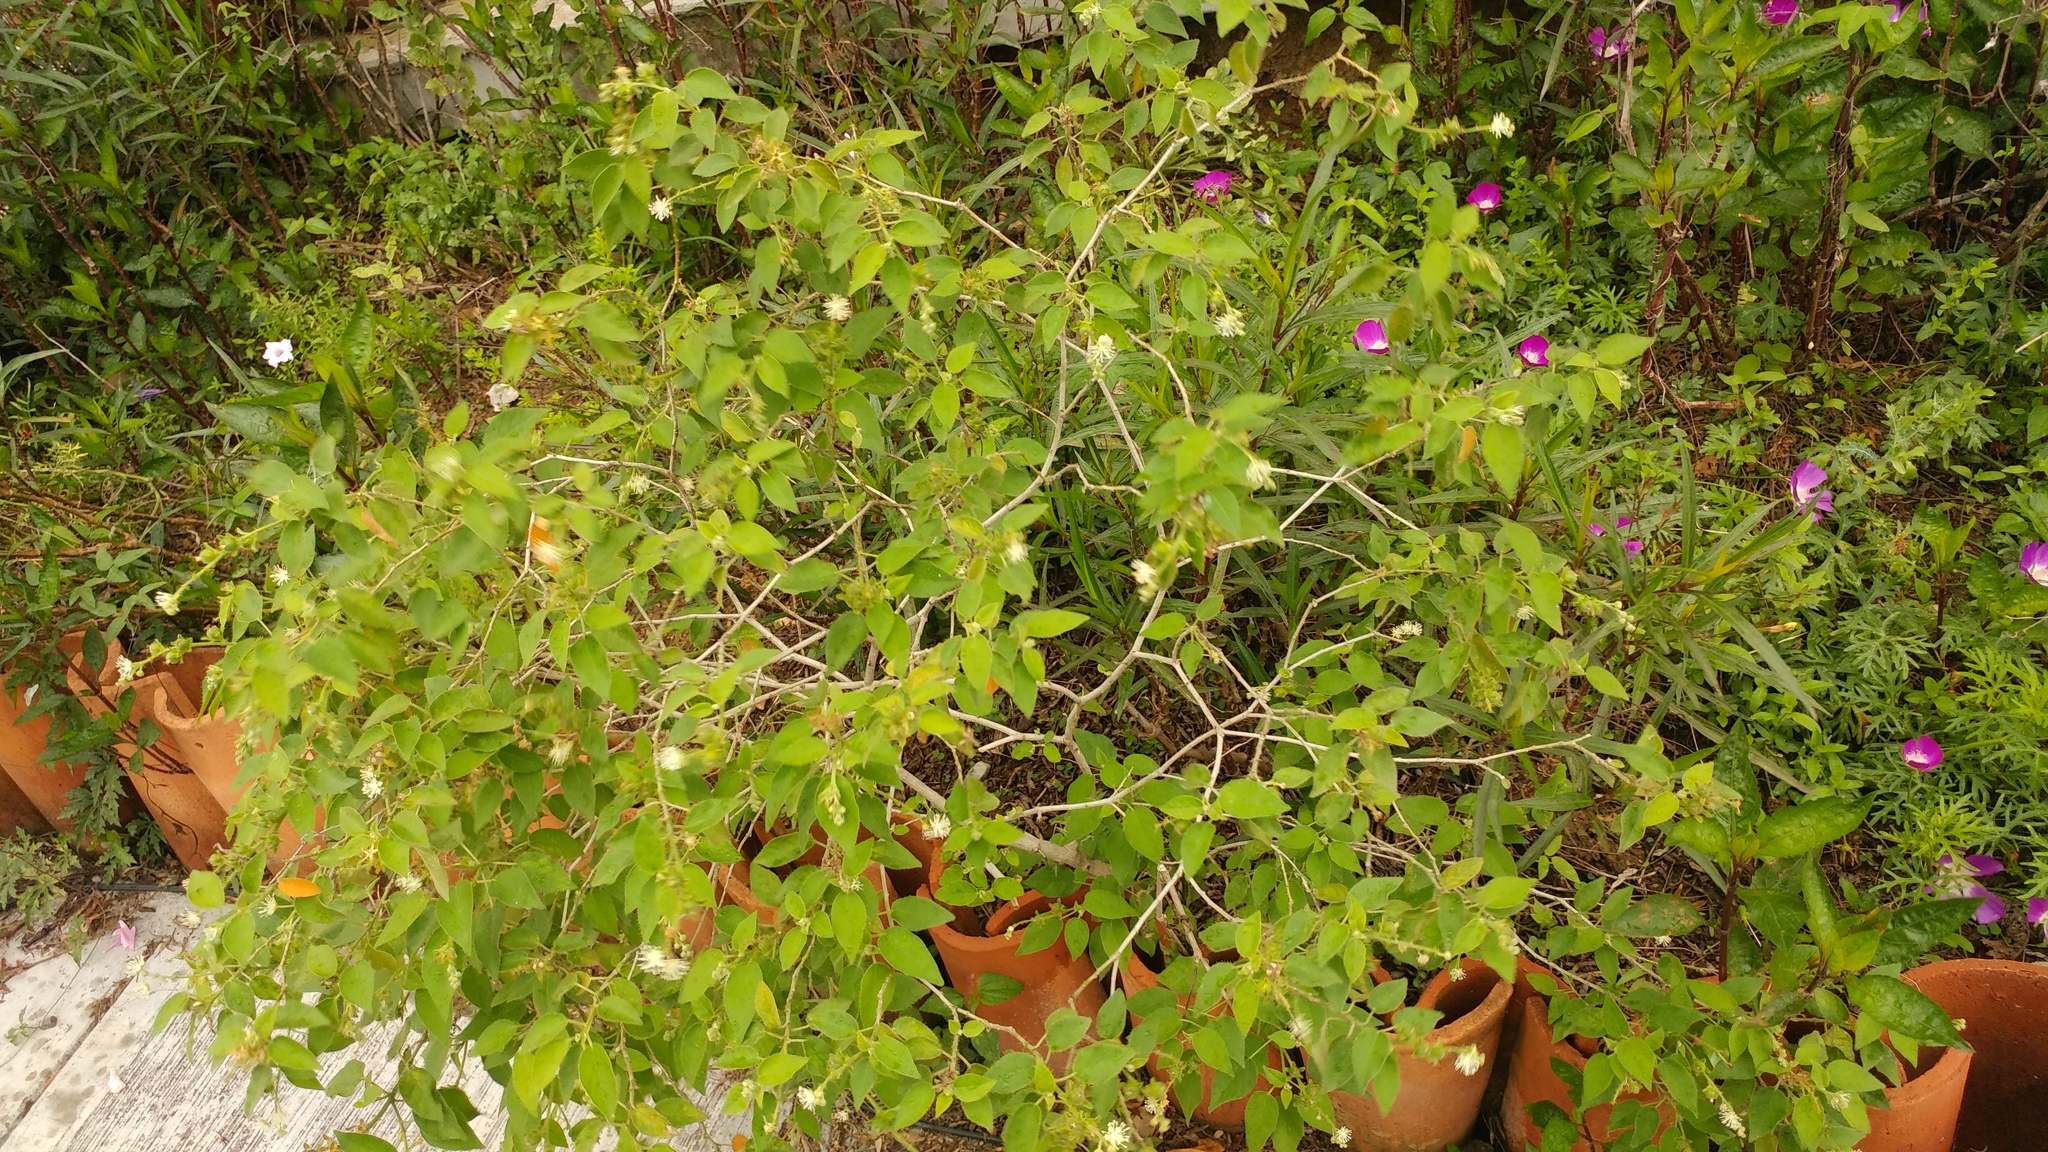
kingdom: Plantae
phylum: Tracheophyta
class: Magnoliopsida
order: Malpighiales
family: Euphorbiaceae
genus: Croton
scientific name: Croton ciliatoglandulifer
